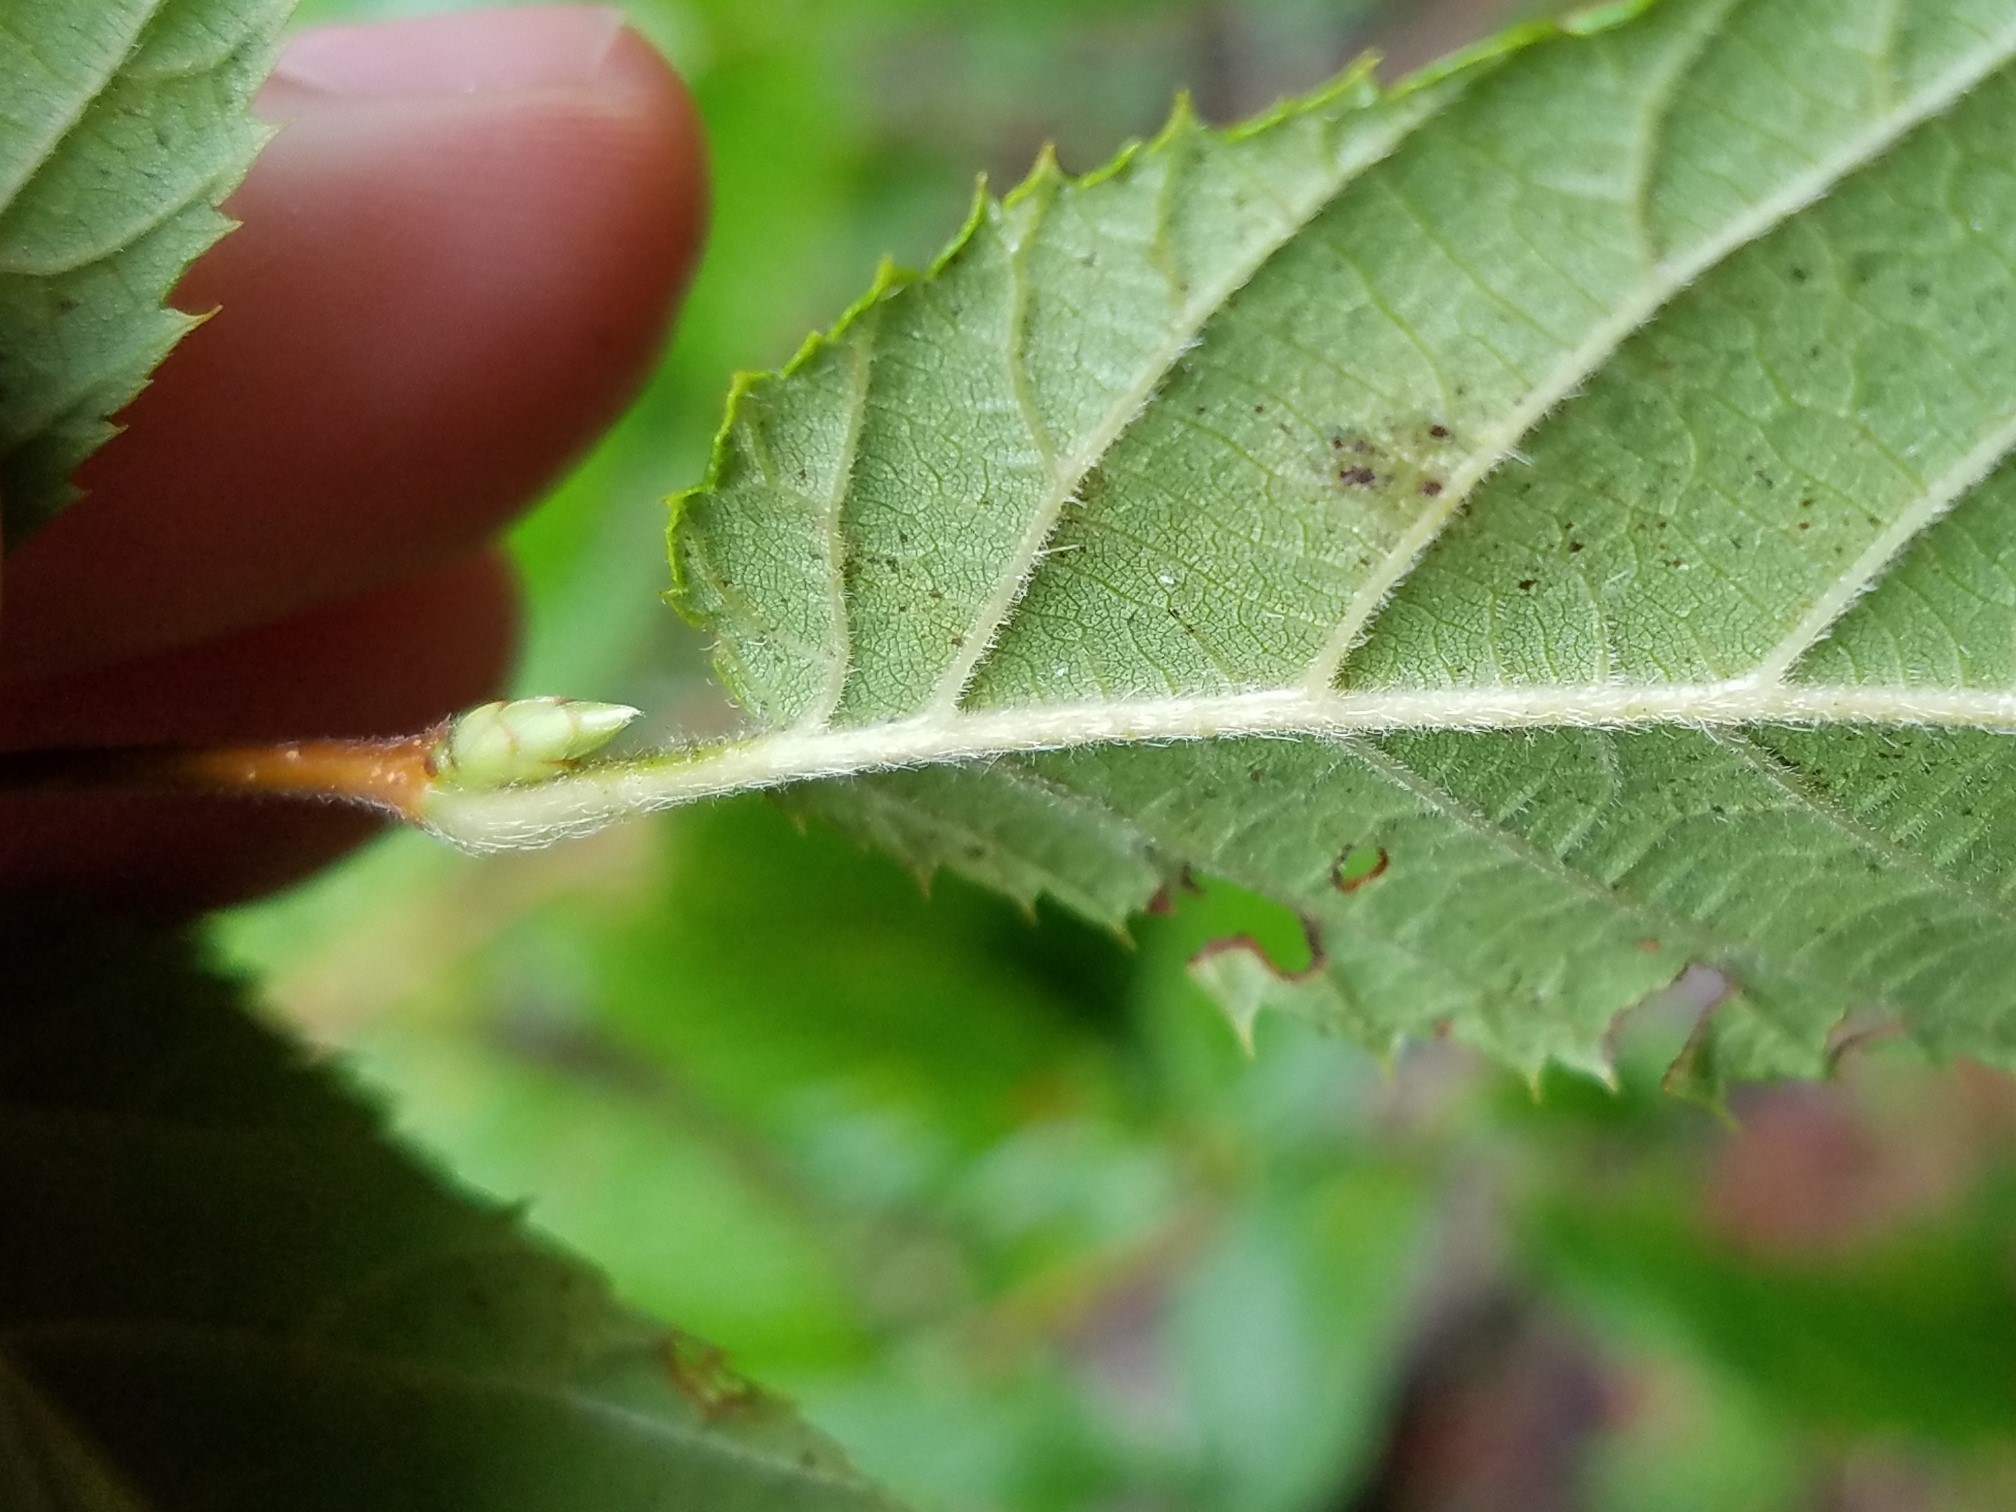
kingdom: Plantae
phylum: Tracheophyta
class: Magnoliopsida
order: Fagales
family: Betulaceae
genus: Ostrya
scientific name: Ostrya virginiana
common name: Ironwood
